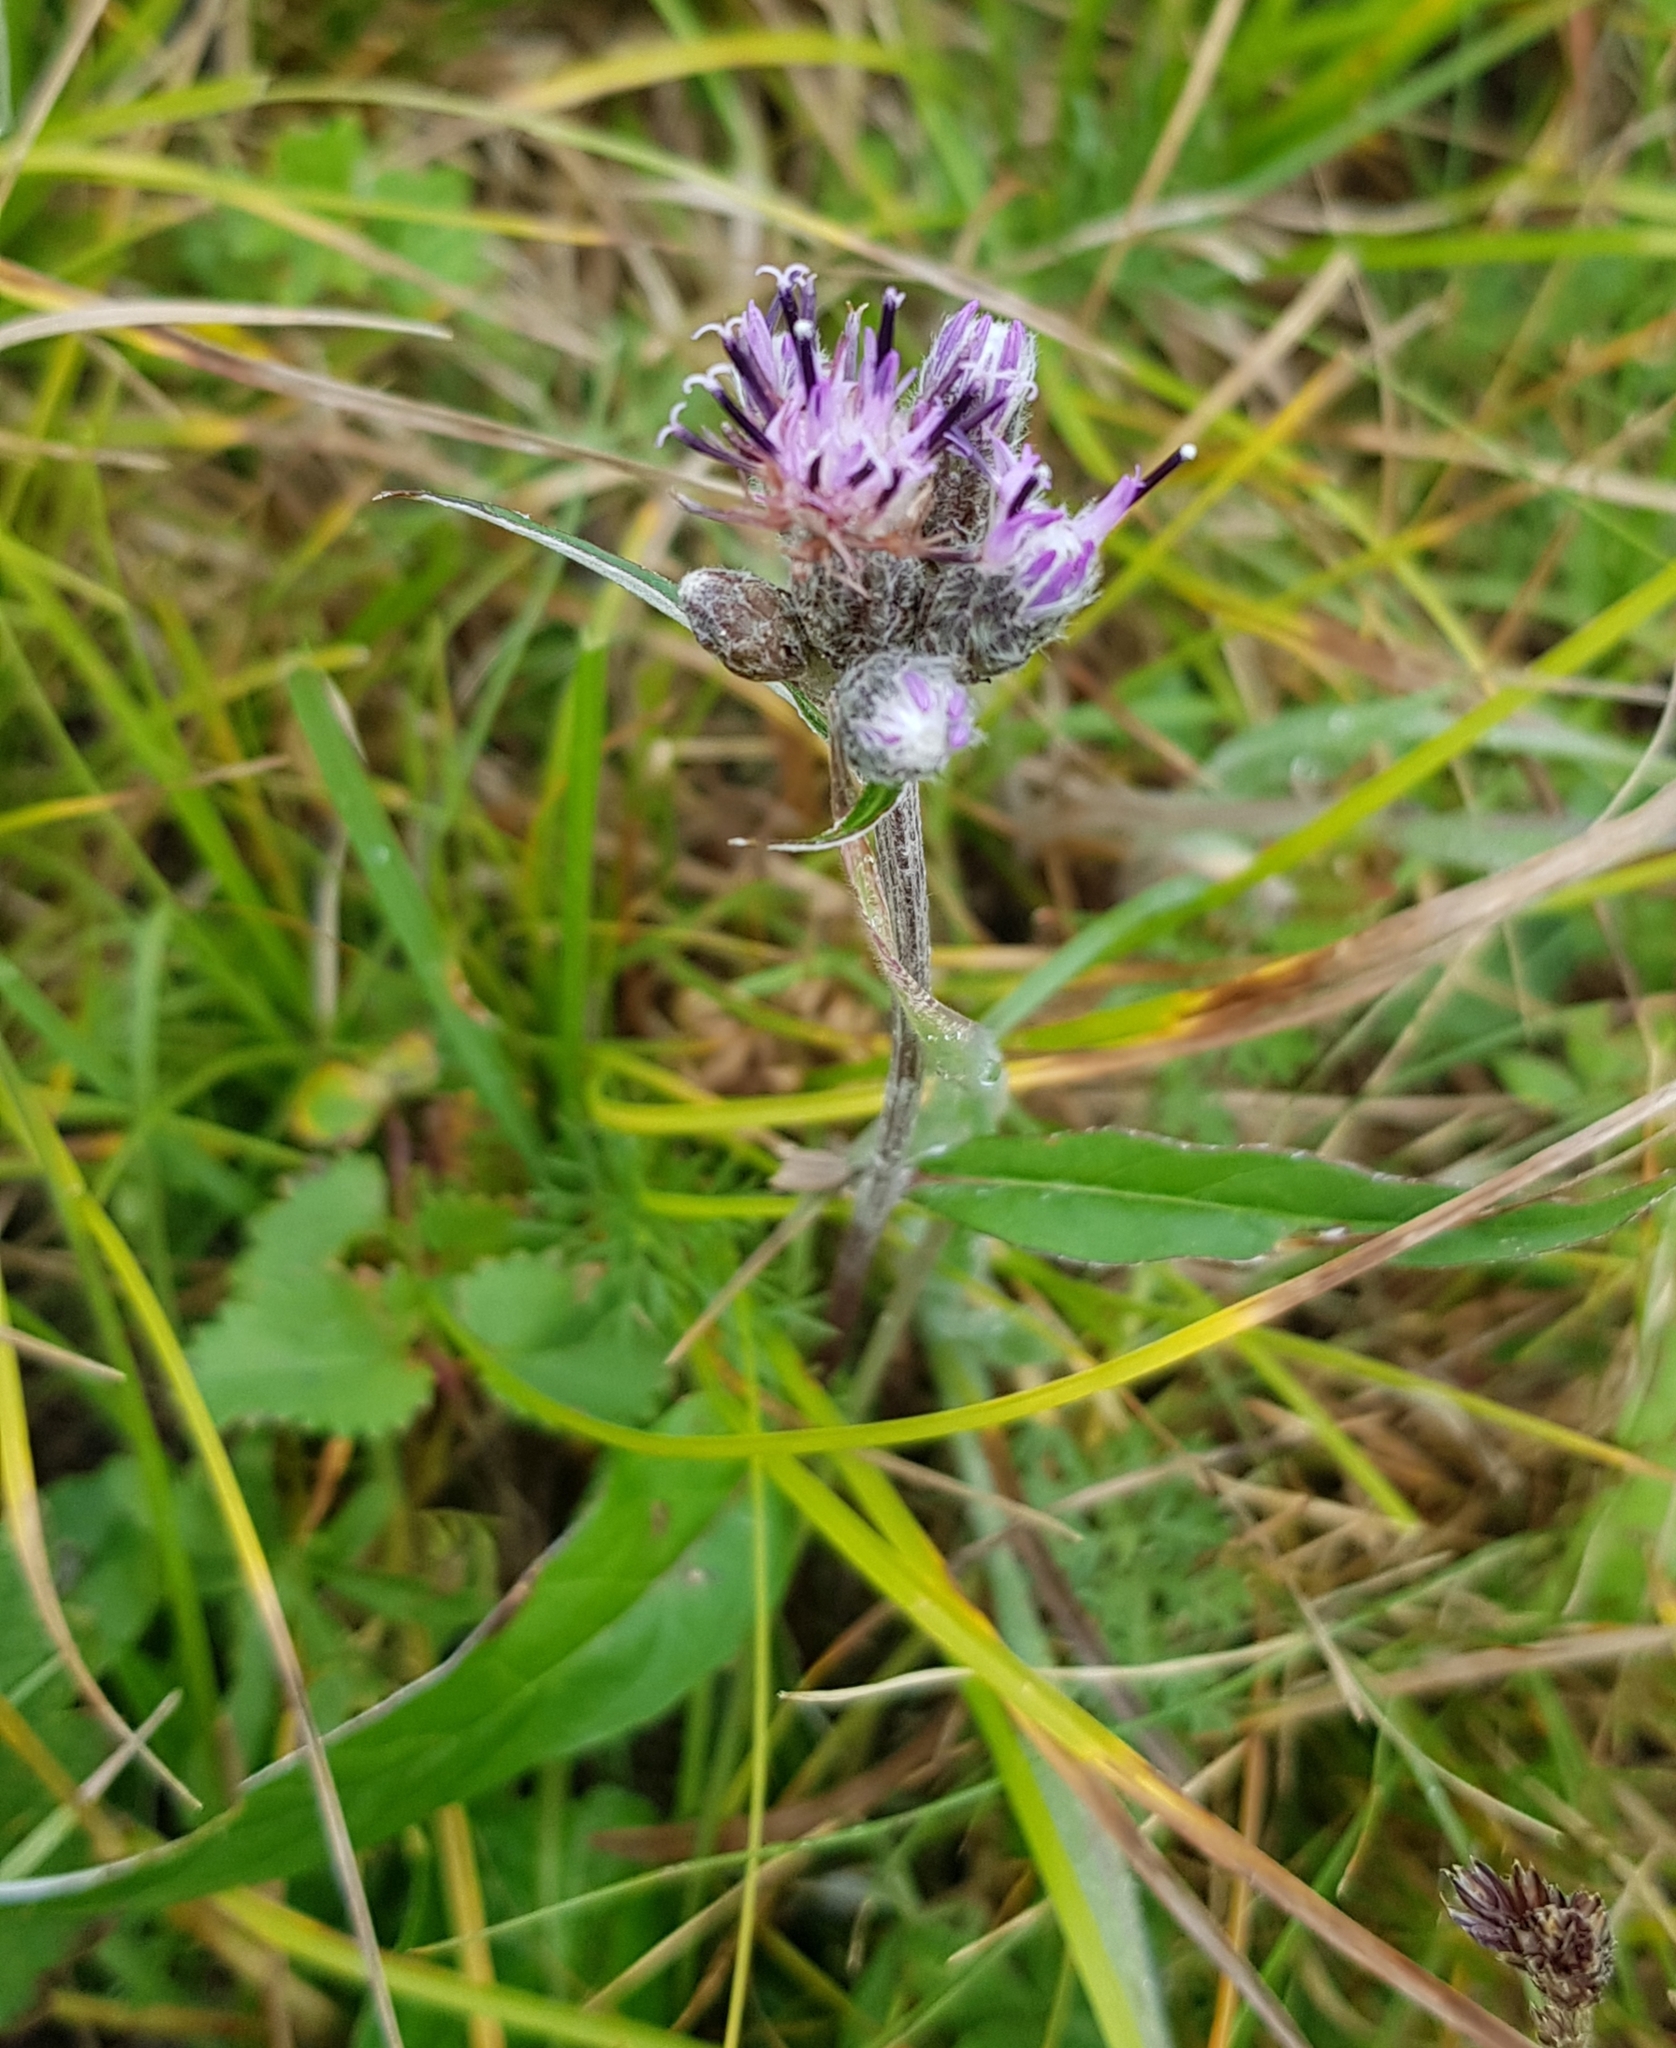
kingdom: Plantae
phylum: Tracheophyta
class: Magnoliopsida
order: Asterales
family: Asteraceae
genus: Saussurea
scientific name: Saussurea alpina
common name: Alpine saw-wort
